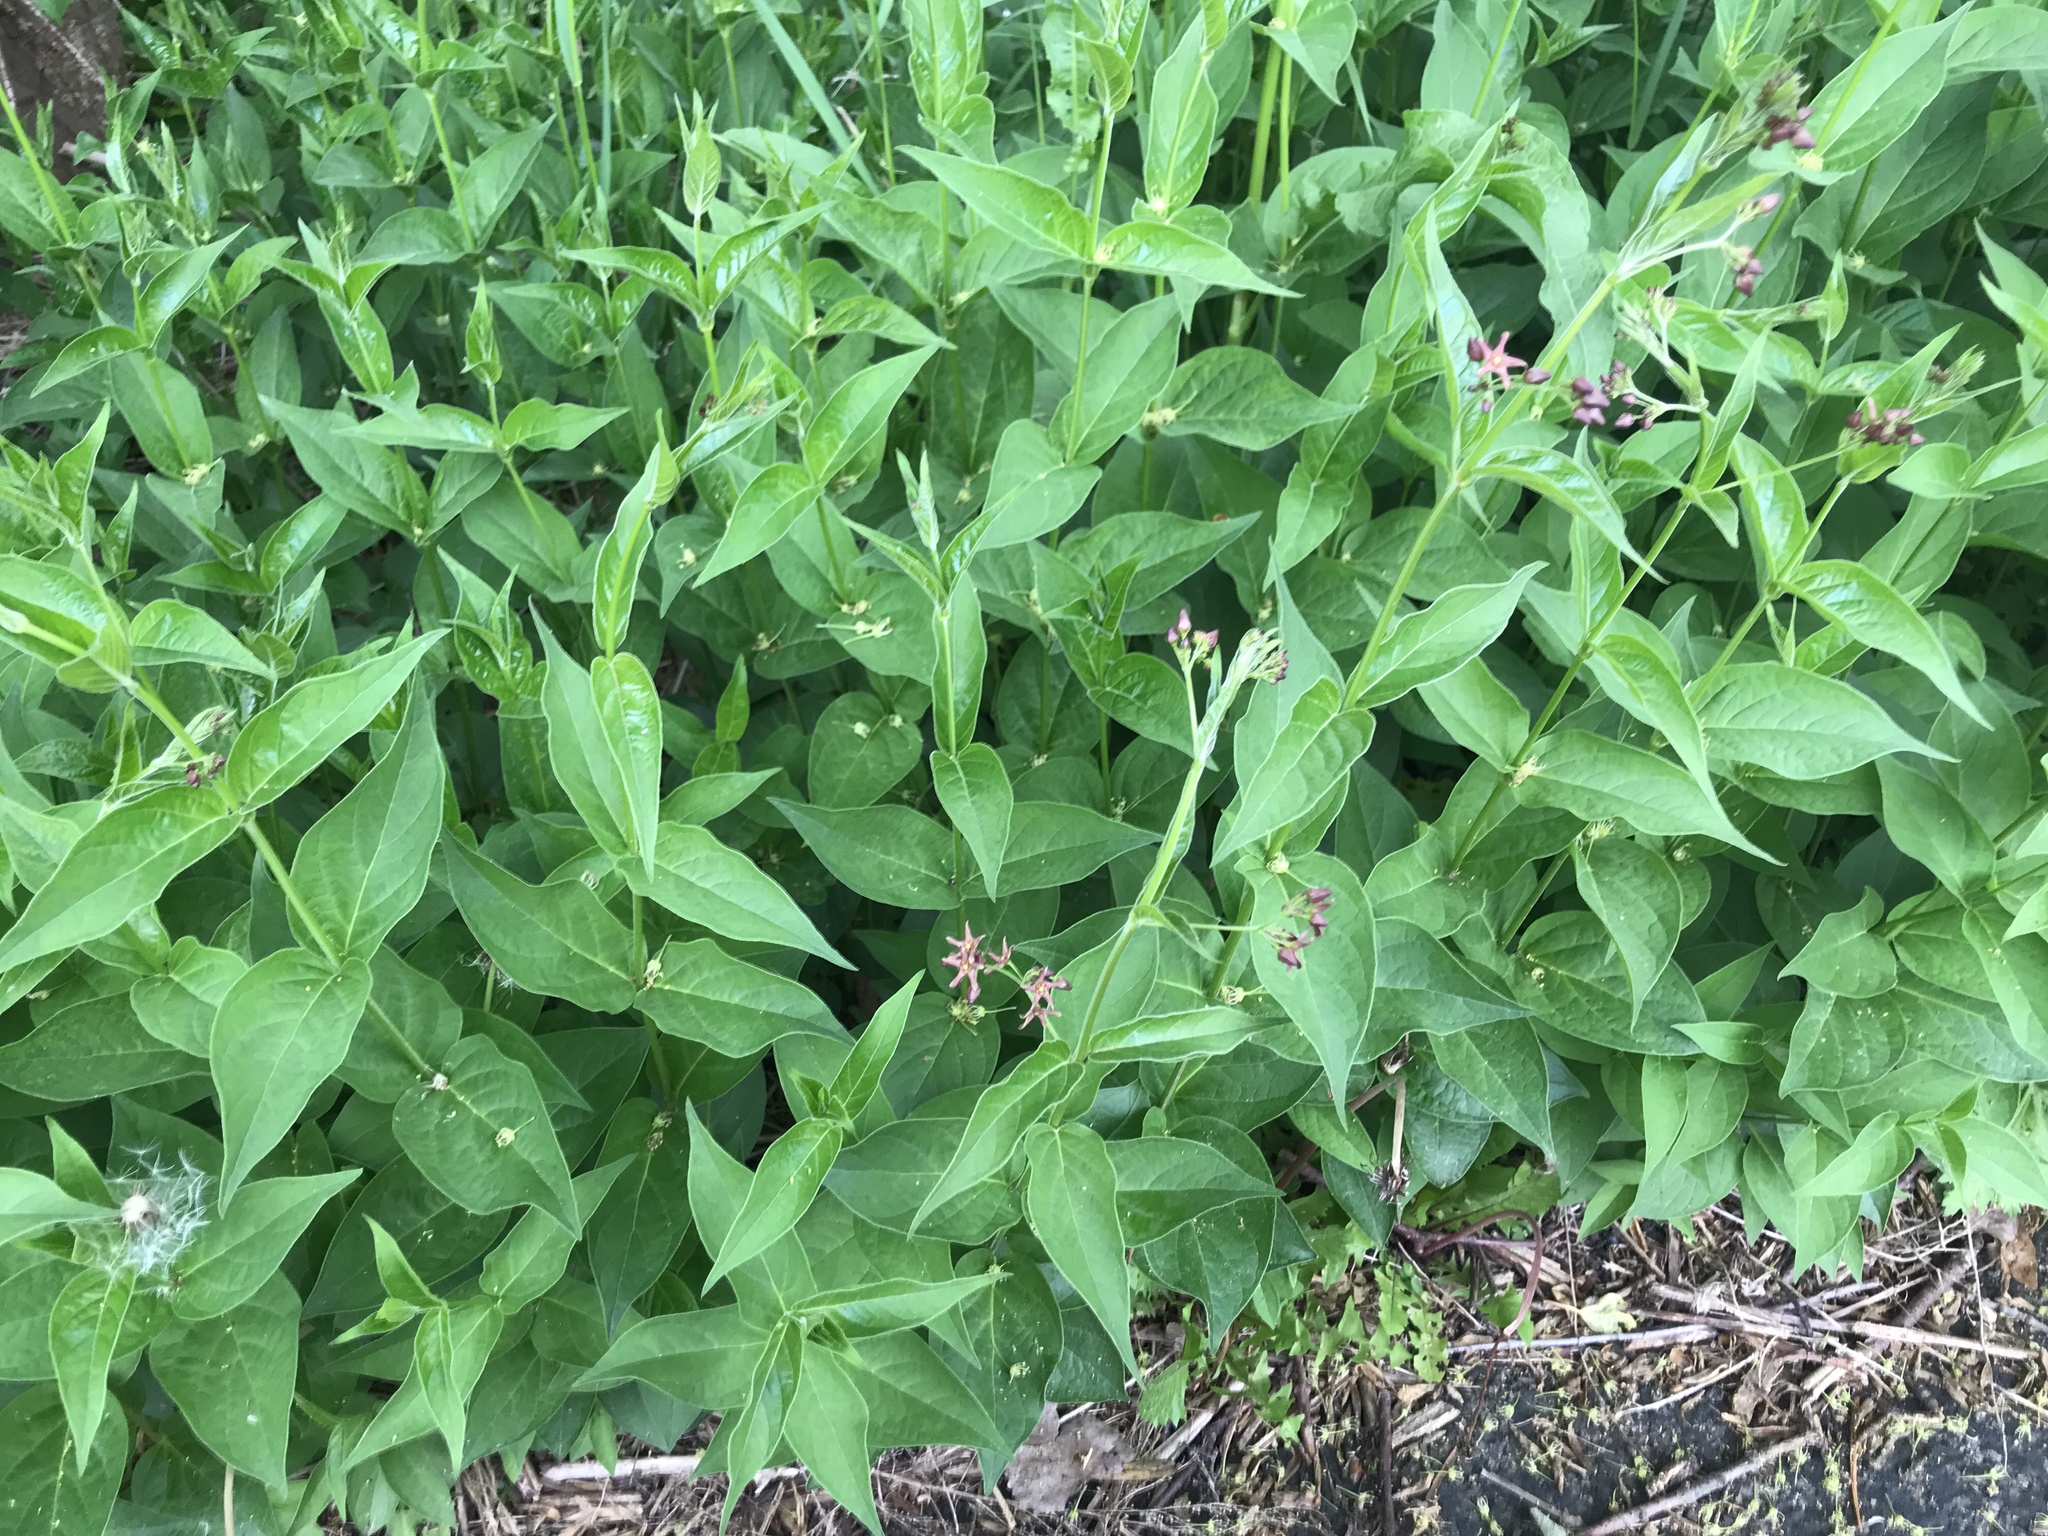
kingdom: Plantae
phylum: Tracheophyta
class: Magnoliopsida
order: Gentianales
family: Apocynaceae
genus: Vincetoxicum
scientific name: Vincetoxicum rossicum
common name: Dog-strangling vine
